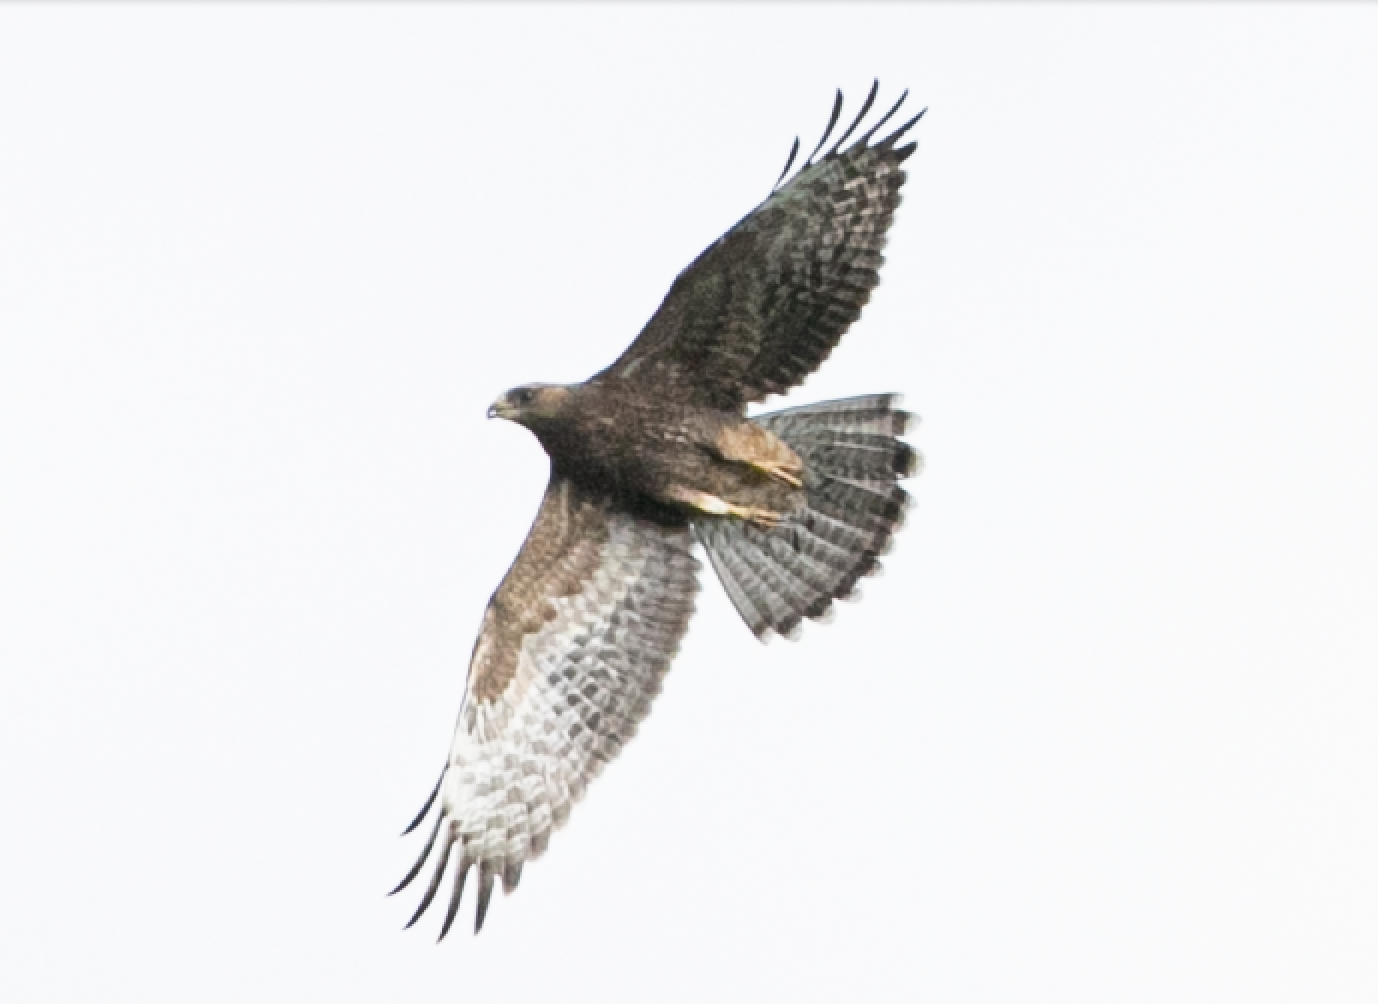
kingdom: Animalia
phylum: Chordata
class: Aves
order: Accipitriformes
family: Accipitridae
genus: Buteo
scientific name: Buteo buteo
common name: Common buzzard
